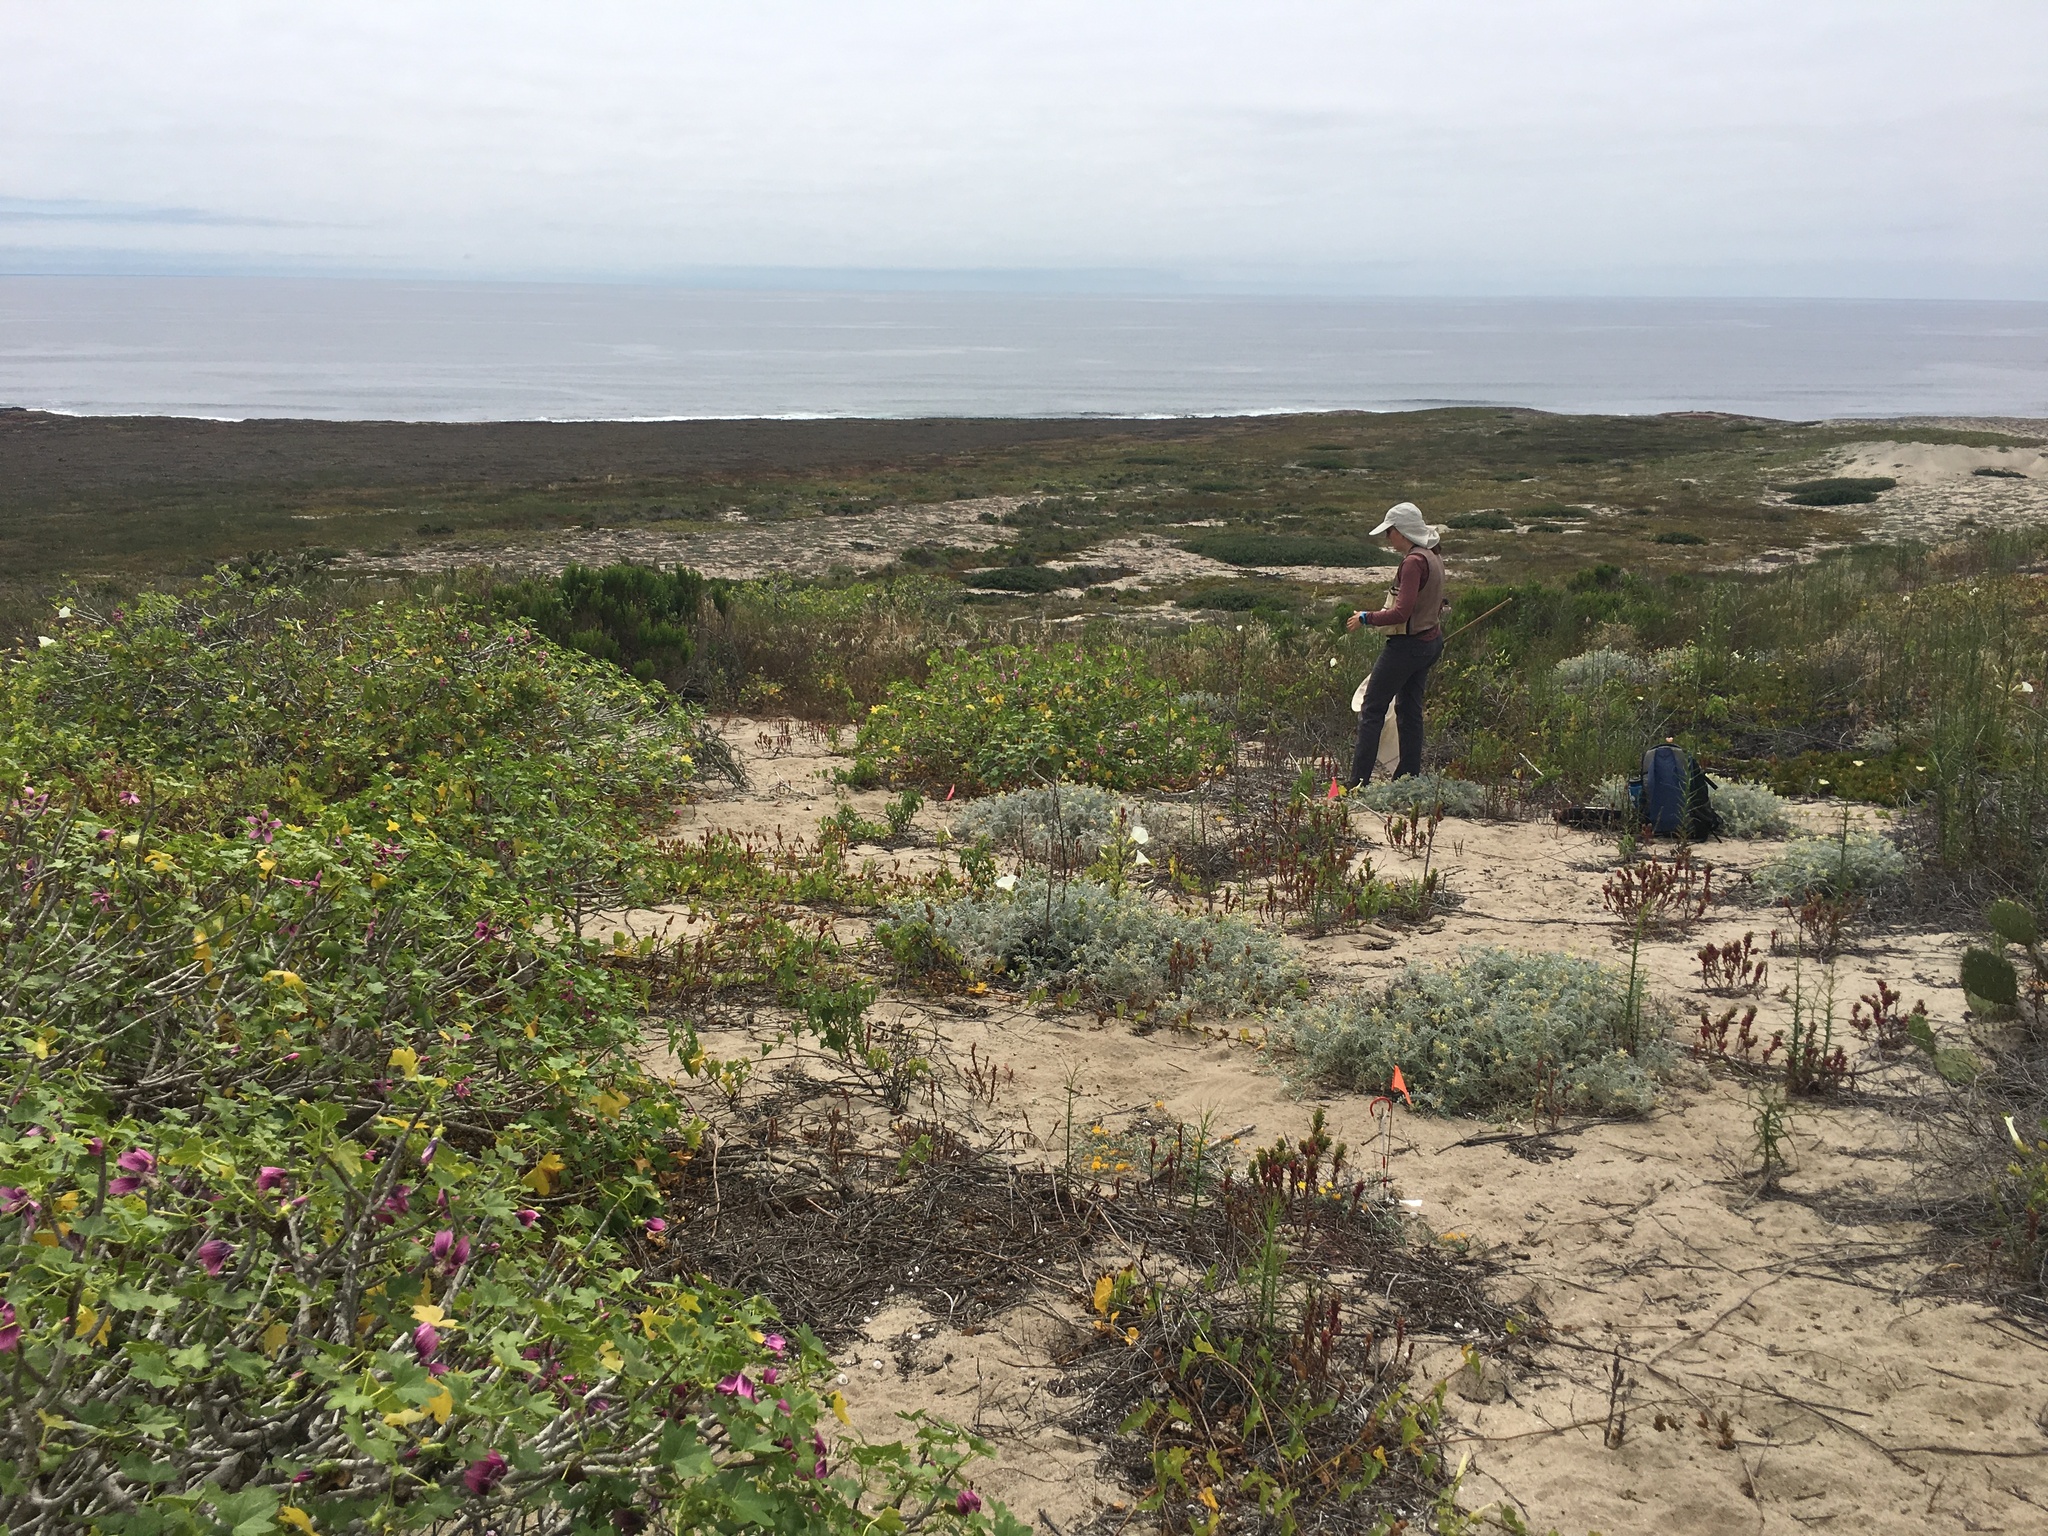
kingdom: Plantae
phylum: Tracheophyta
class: Magnoliopsida
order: Malvales
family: Malvaceae
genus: Malva
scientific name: Malva assurgentiflora
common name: Island mallow
